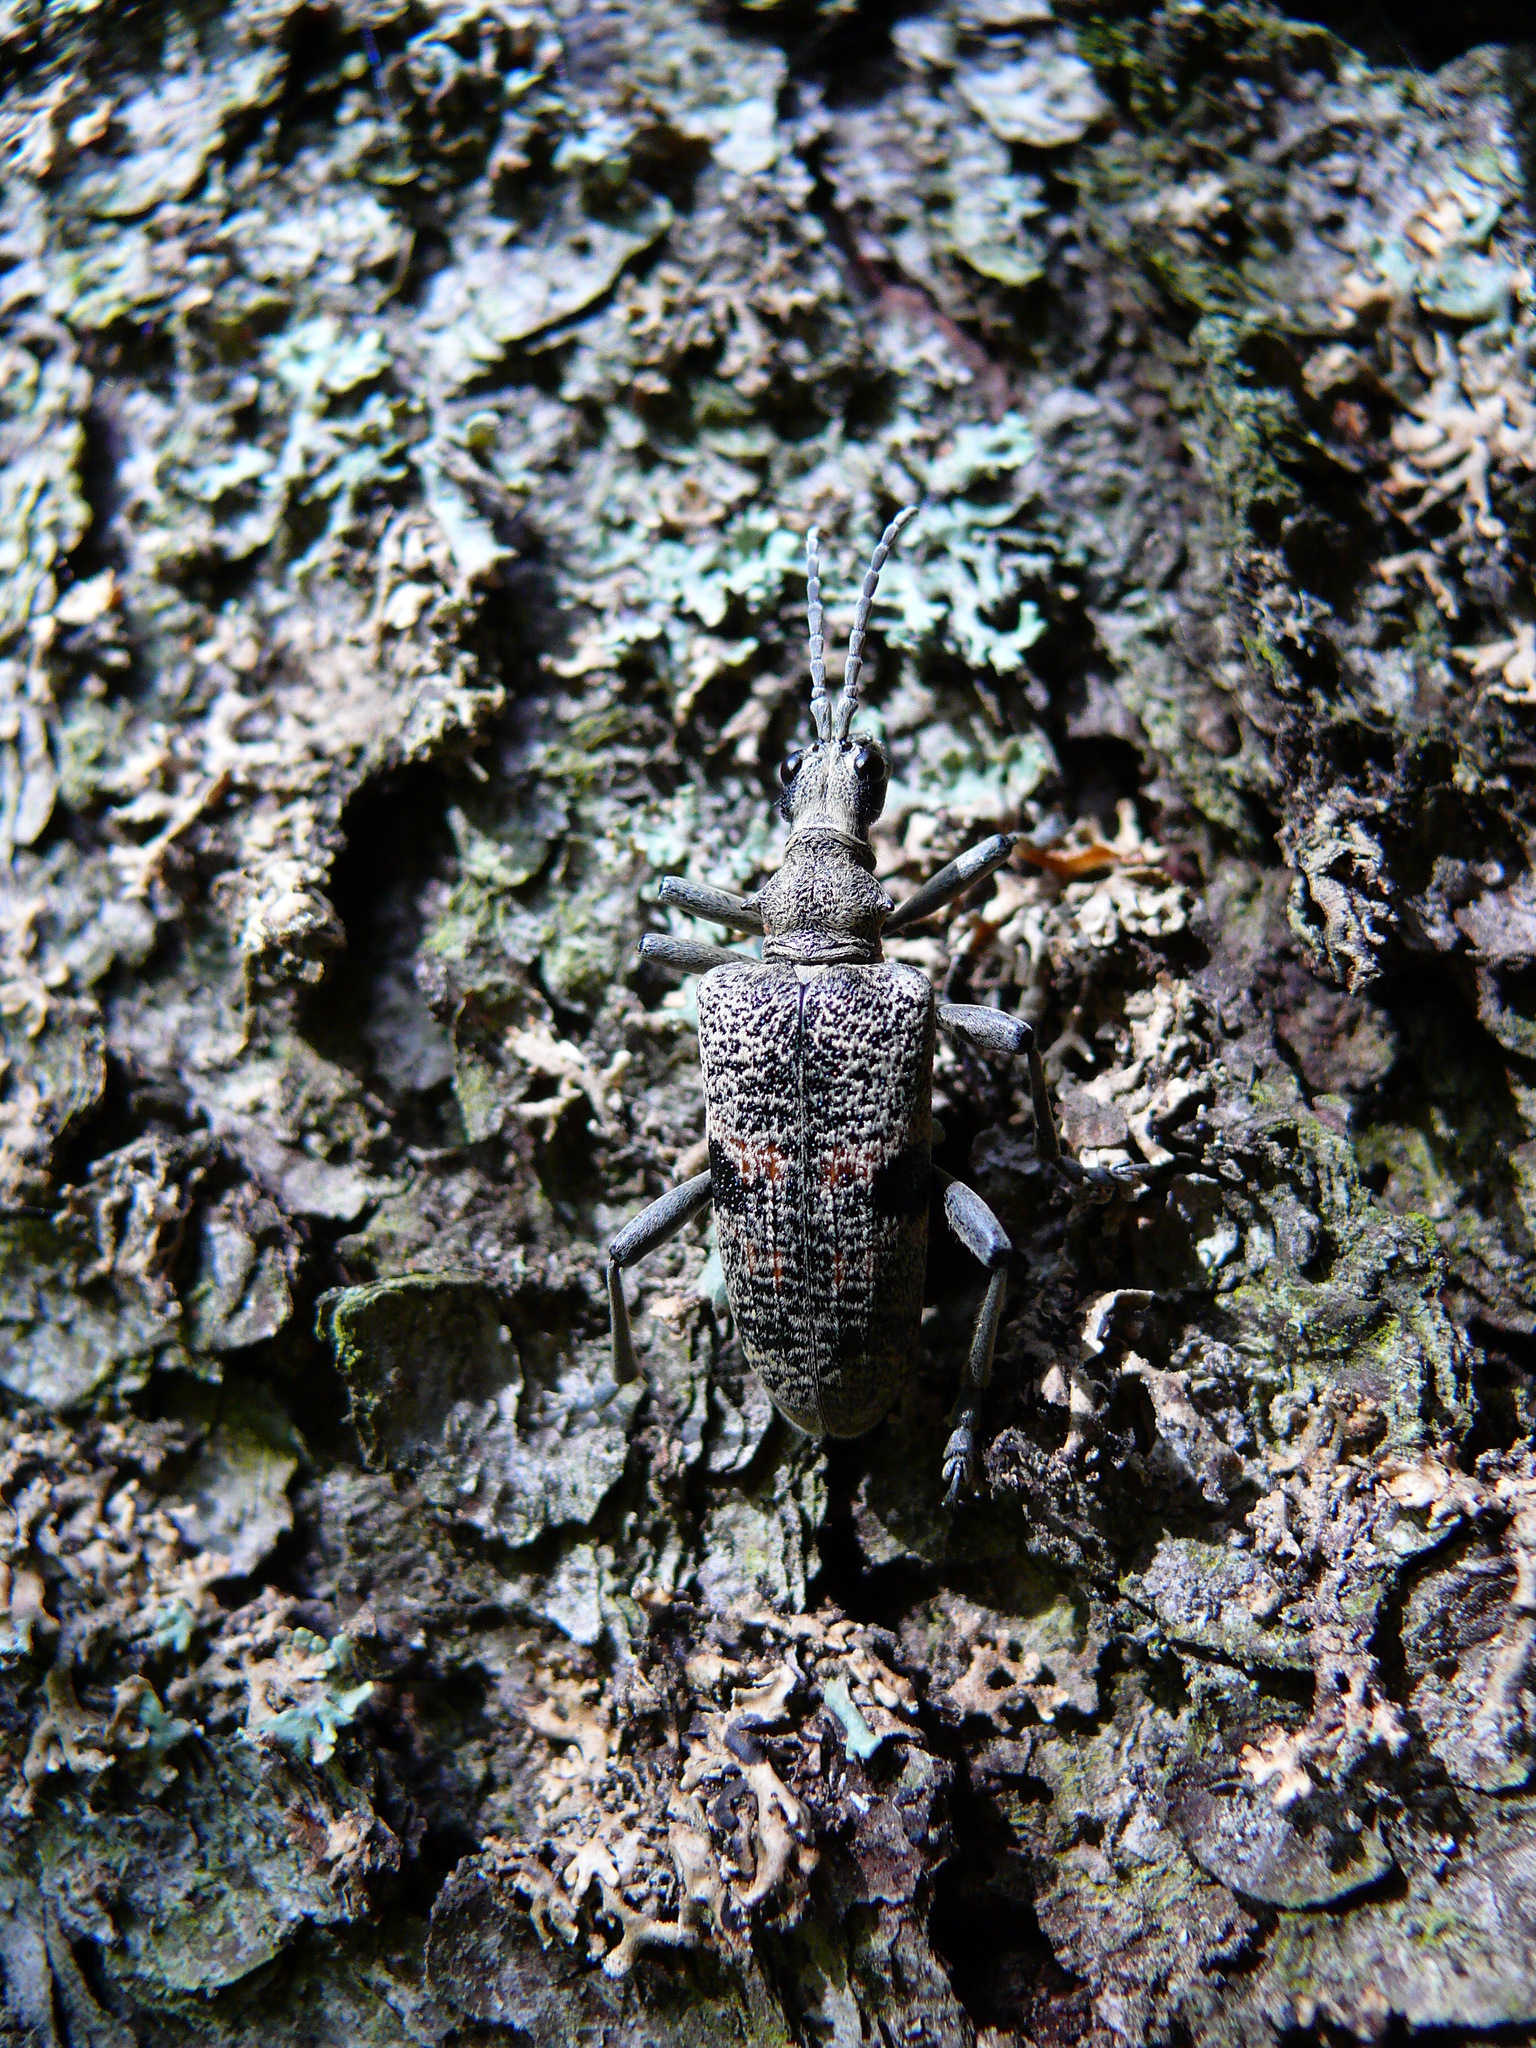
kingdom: Animalia
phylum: Arthropoda
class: Insecta
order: Coleoptera
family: Cerambycidae
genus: Rhagium
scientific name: Rhagium mordax
